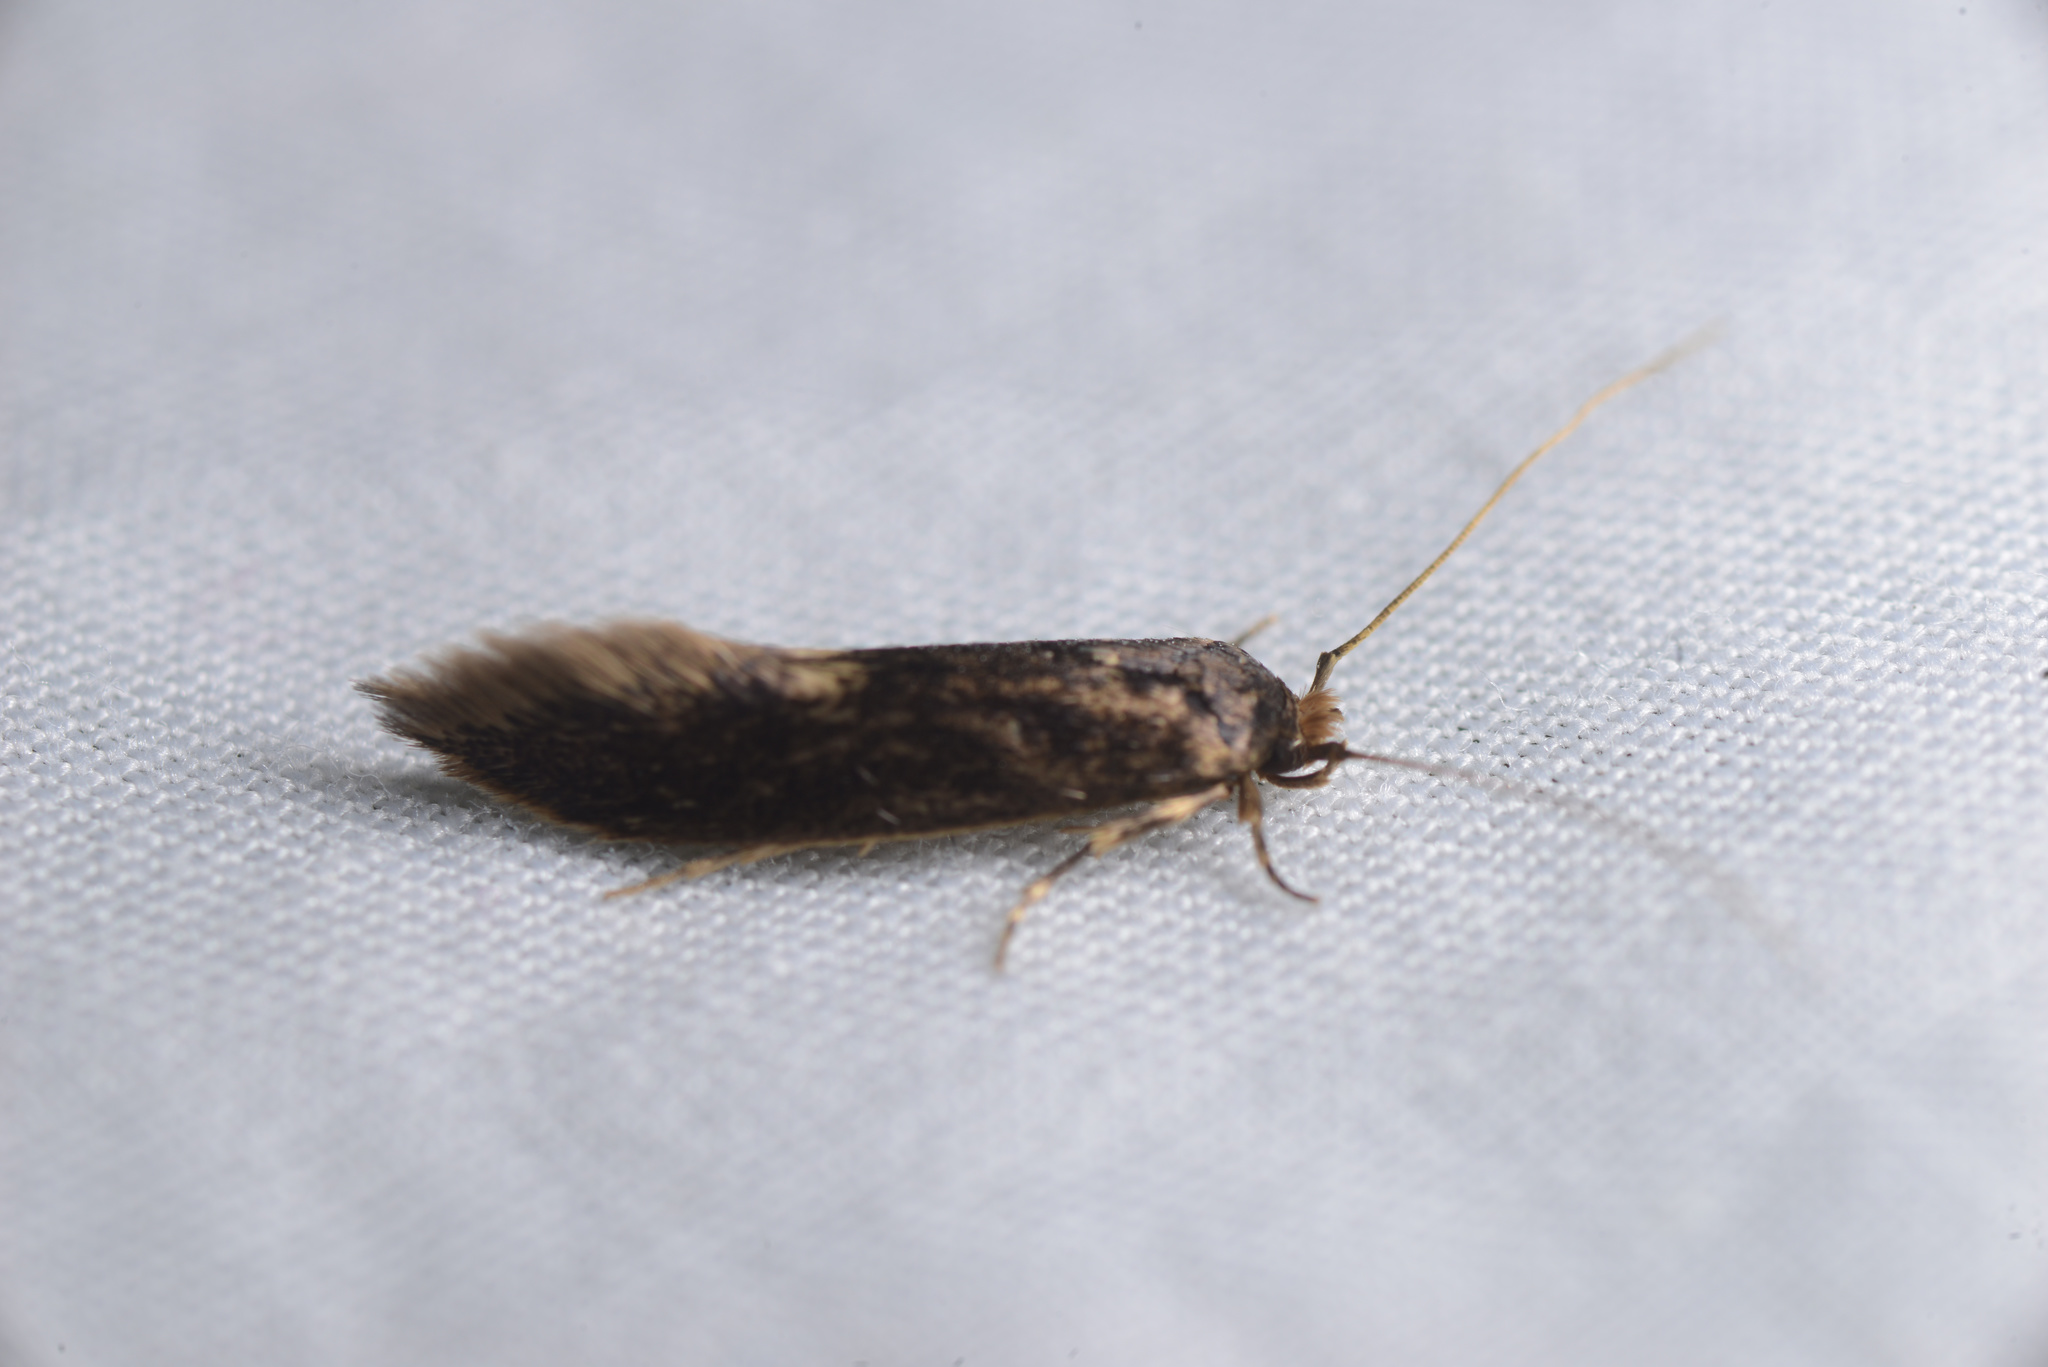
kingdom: Animalia
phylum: Arthropoda
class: Insecta
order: Lepidoptera
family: Tineidae
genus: Opogona
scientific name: Opogona omoscopa
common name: Moth
